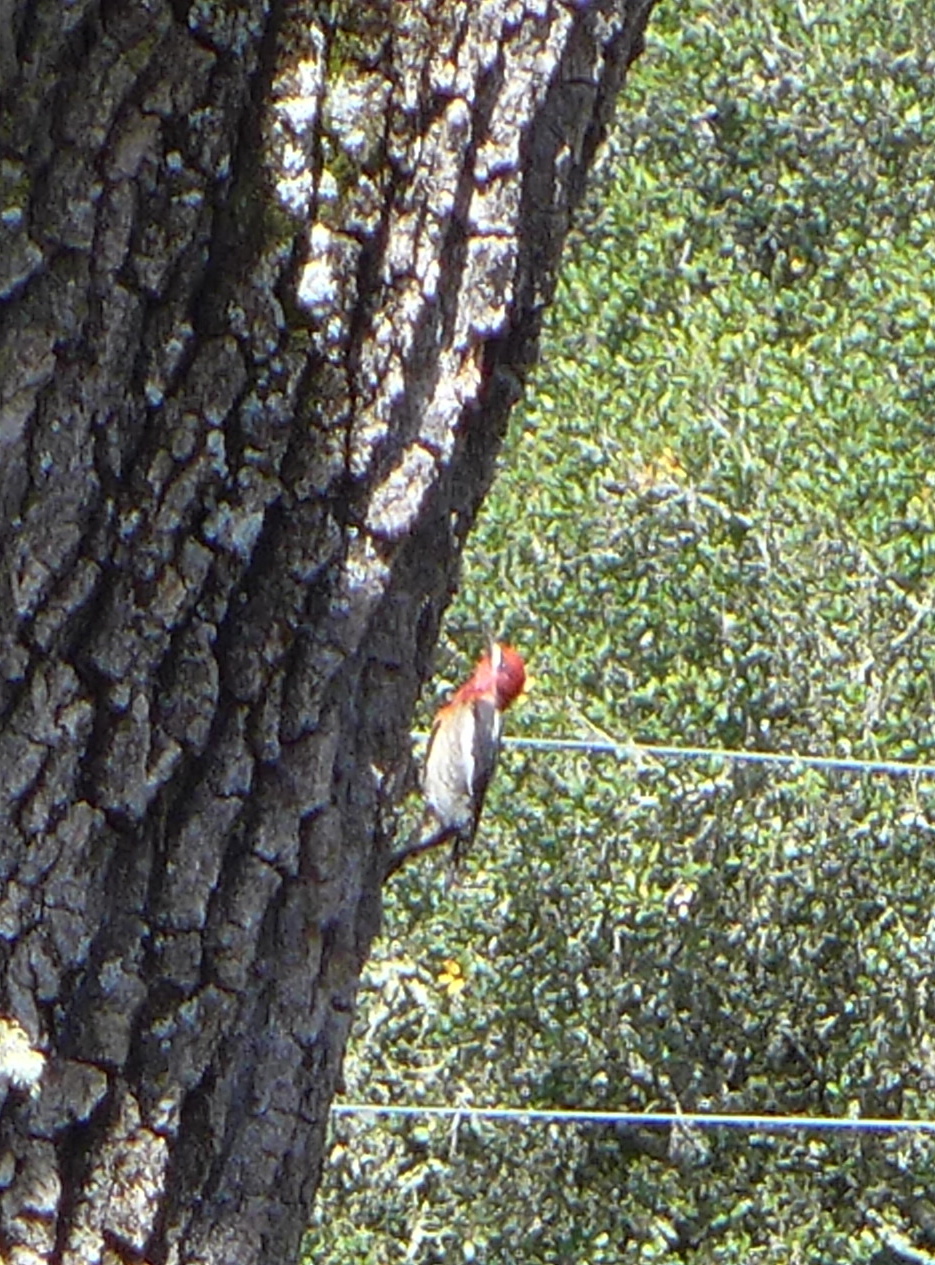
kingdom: Animalia
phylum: Chordata
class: Aves
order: Piciformes
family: Picidae
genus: Sphyrapicus
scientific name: Sphyrapicus ruber
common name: Red-breasted sapsucker
